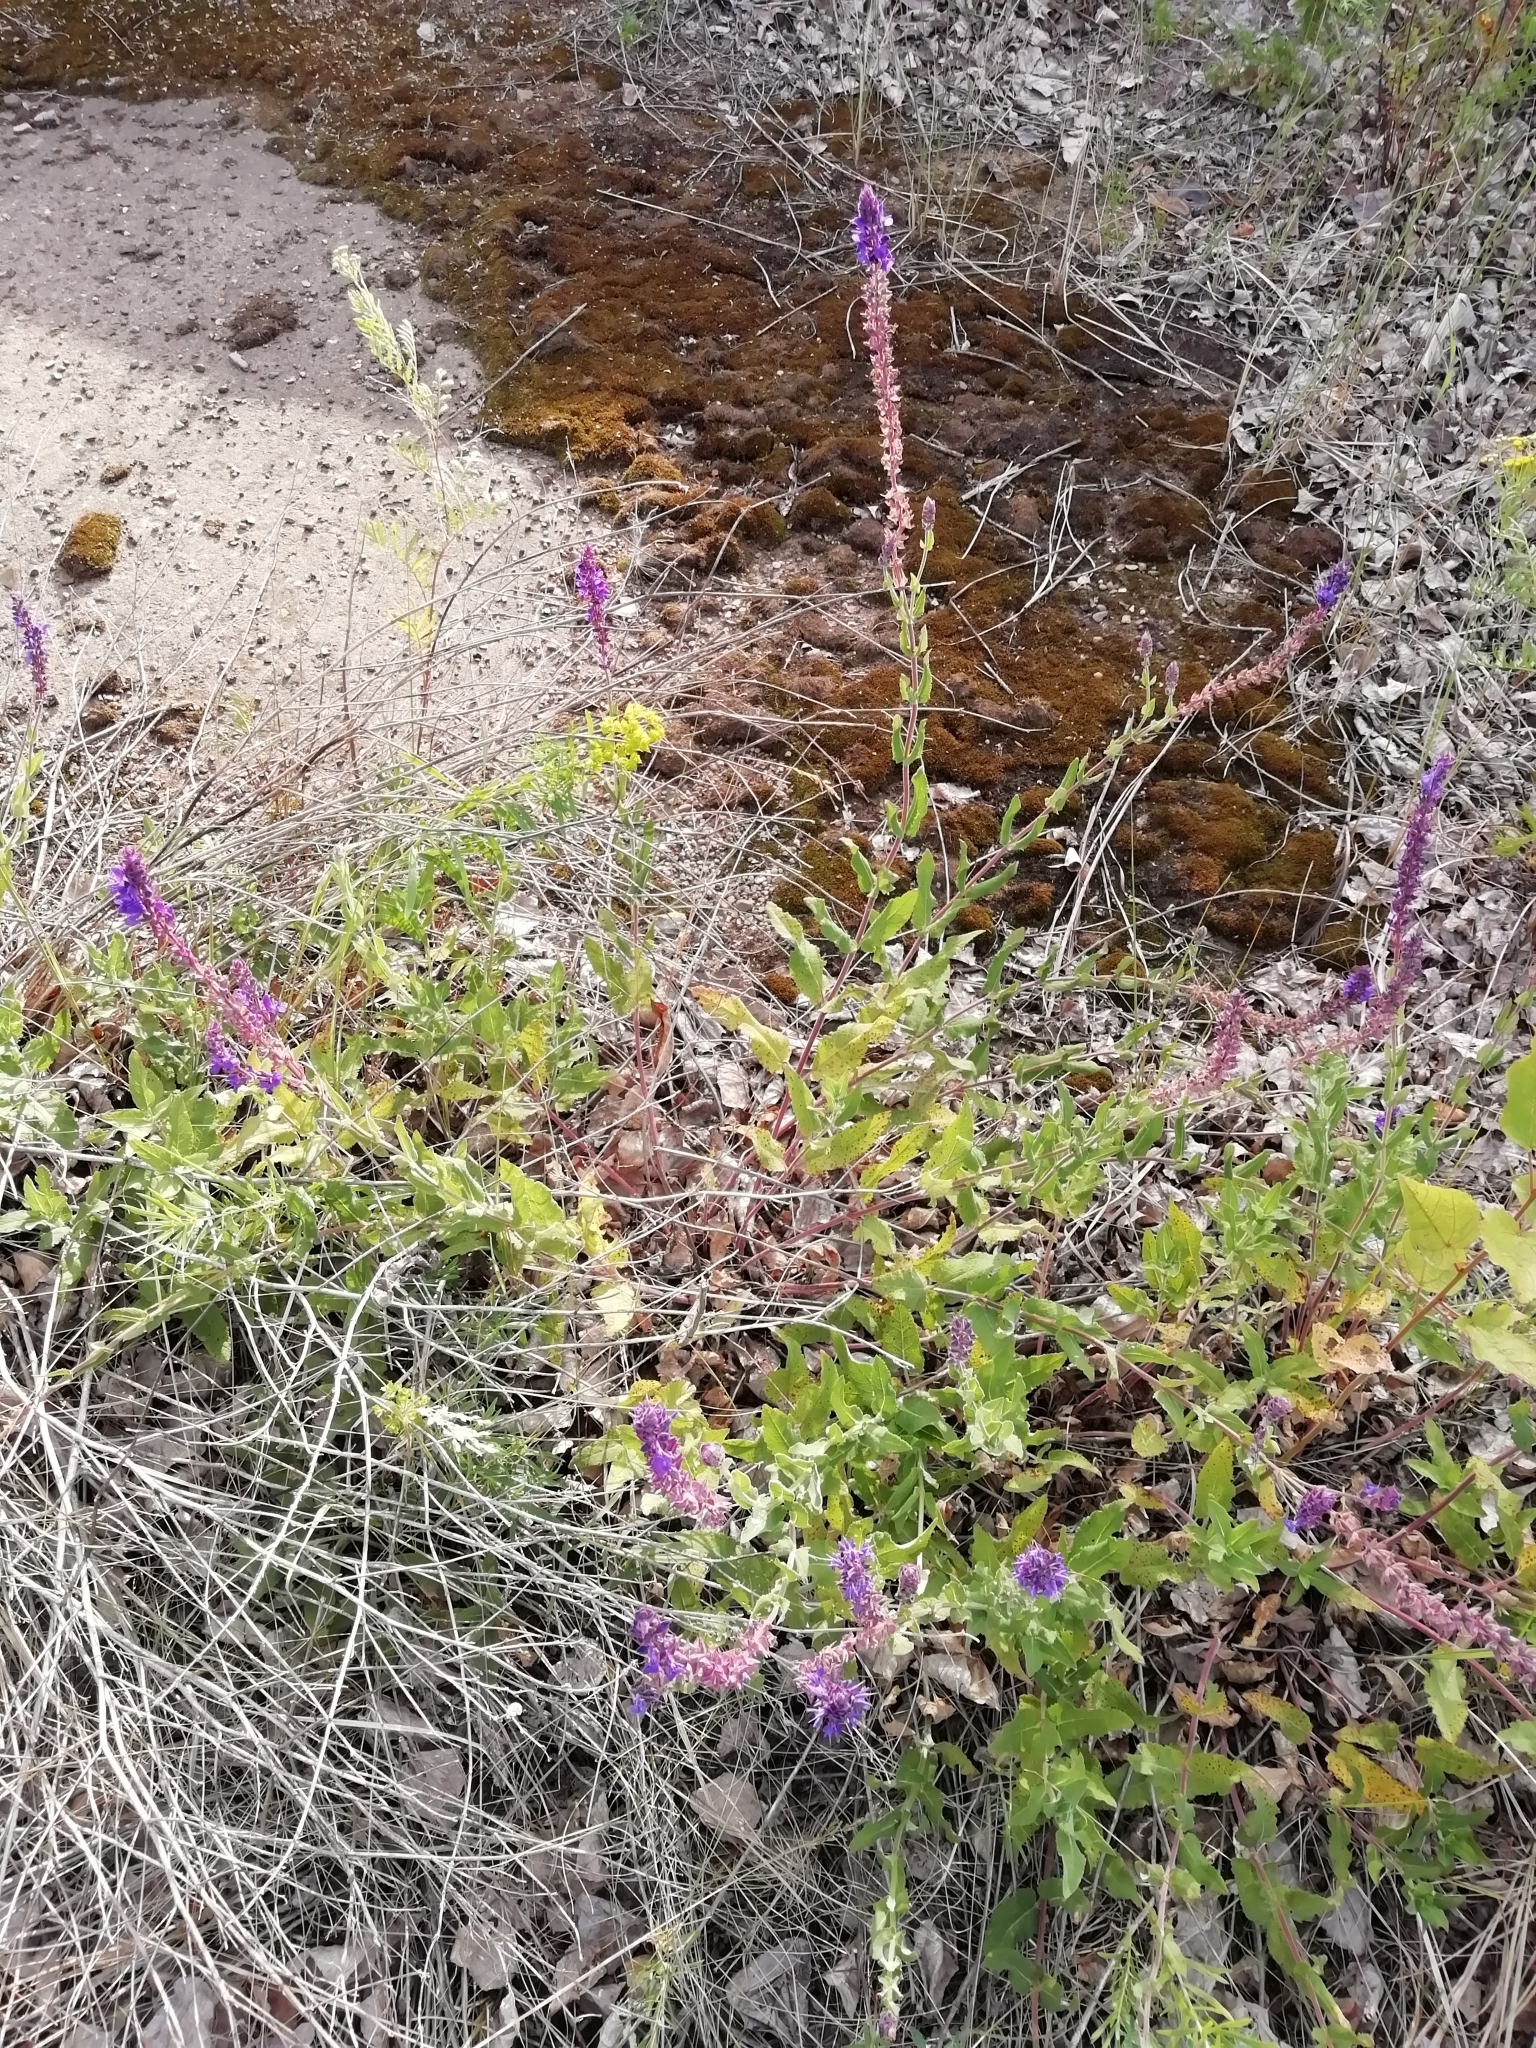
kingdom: Plantae
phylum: Tracheophyta
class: Magnoliopsida
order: Lamiales
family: Lamiaceae
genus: Salvia
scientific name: Salvia dumetorum
